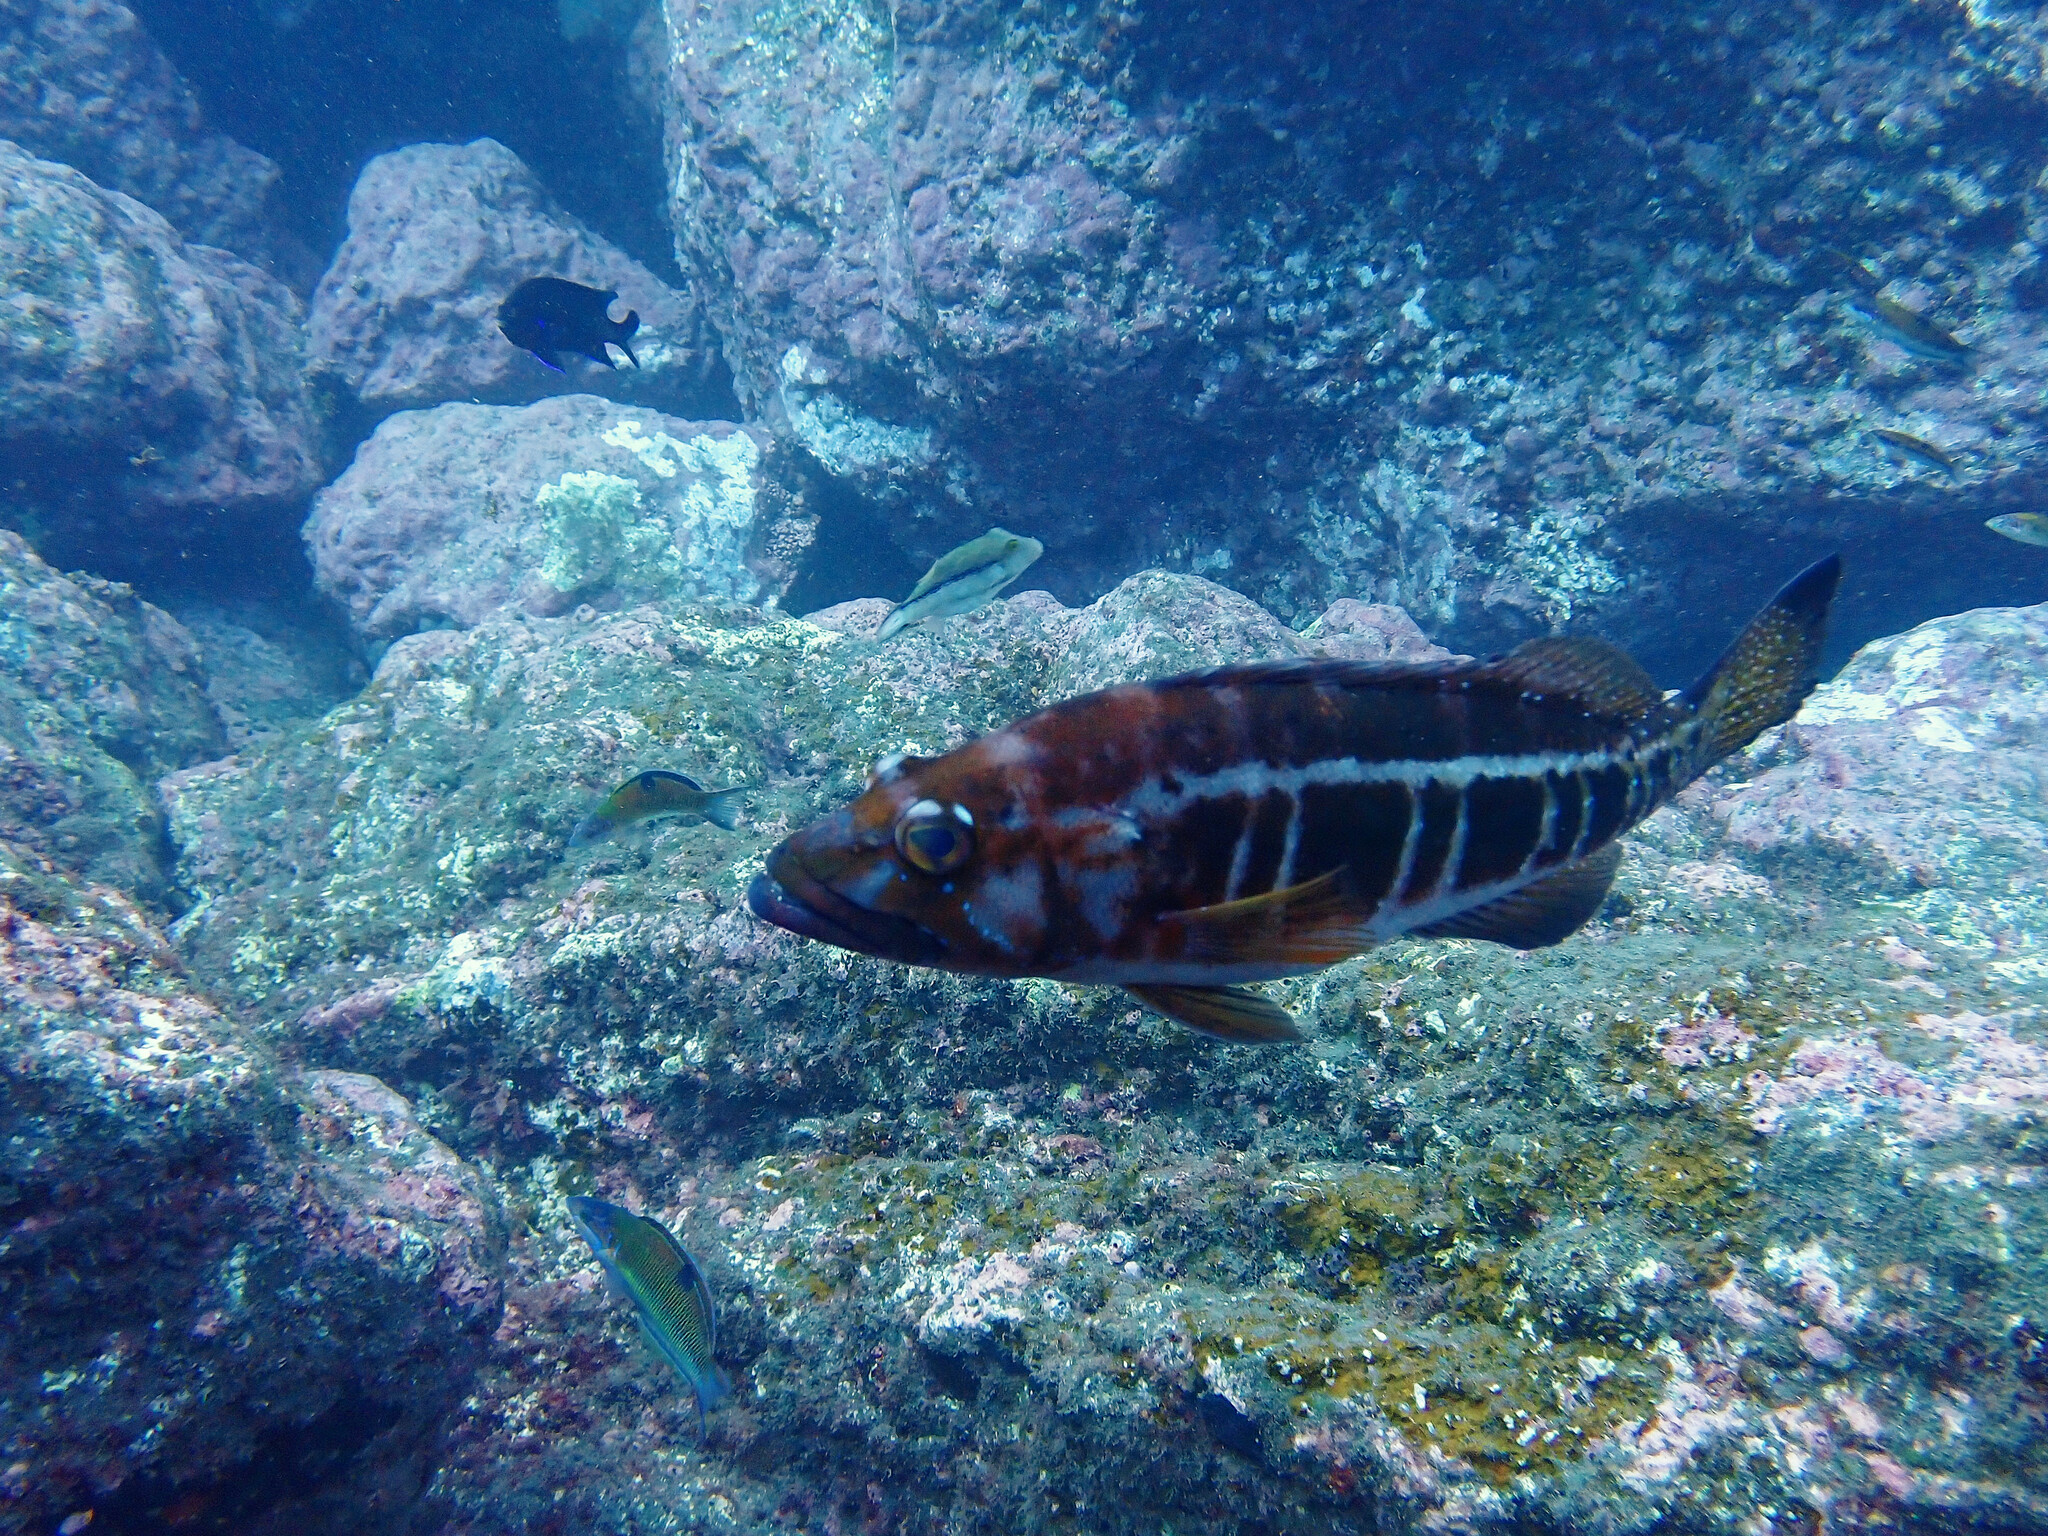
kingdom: Animalia
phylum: Chordata
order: Perciformes
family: Serranidae
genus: Serranus
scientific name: Serranus atricauda
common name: Blacktail comber
